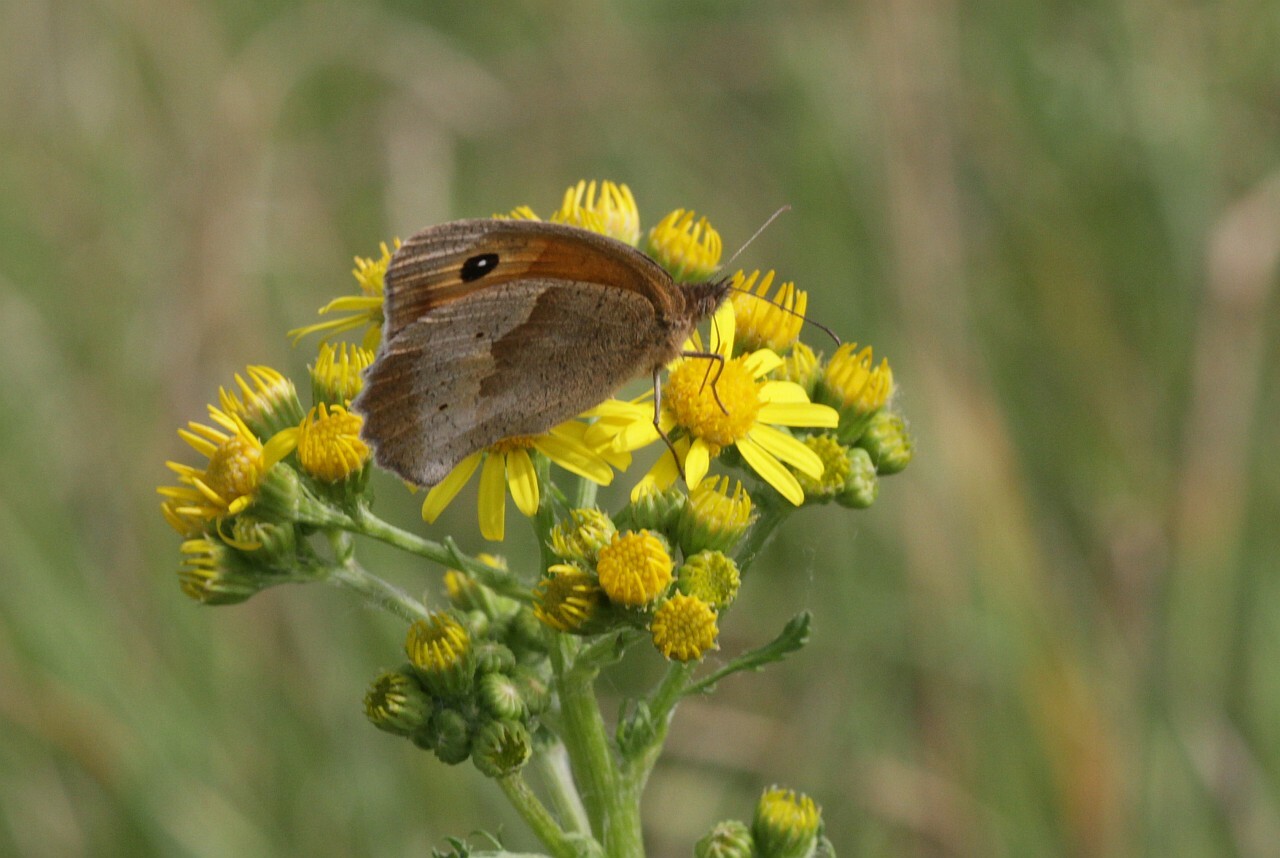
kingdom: Animalia
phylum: Arthropoda
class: Insecta
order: Lepidoptera
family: Nymphalidae
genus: Maniola
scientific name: Maniola jurtina
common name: Meadow brown
